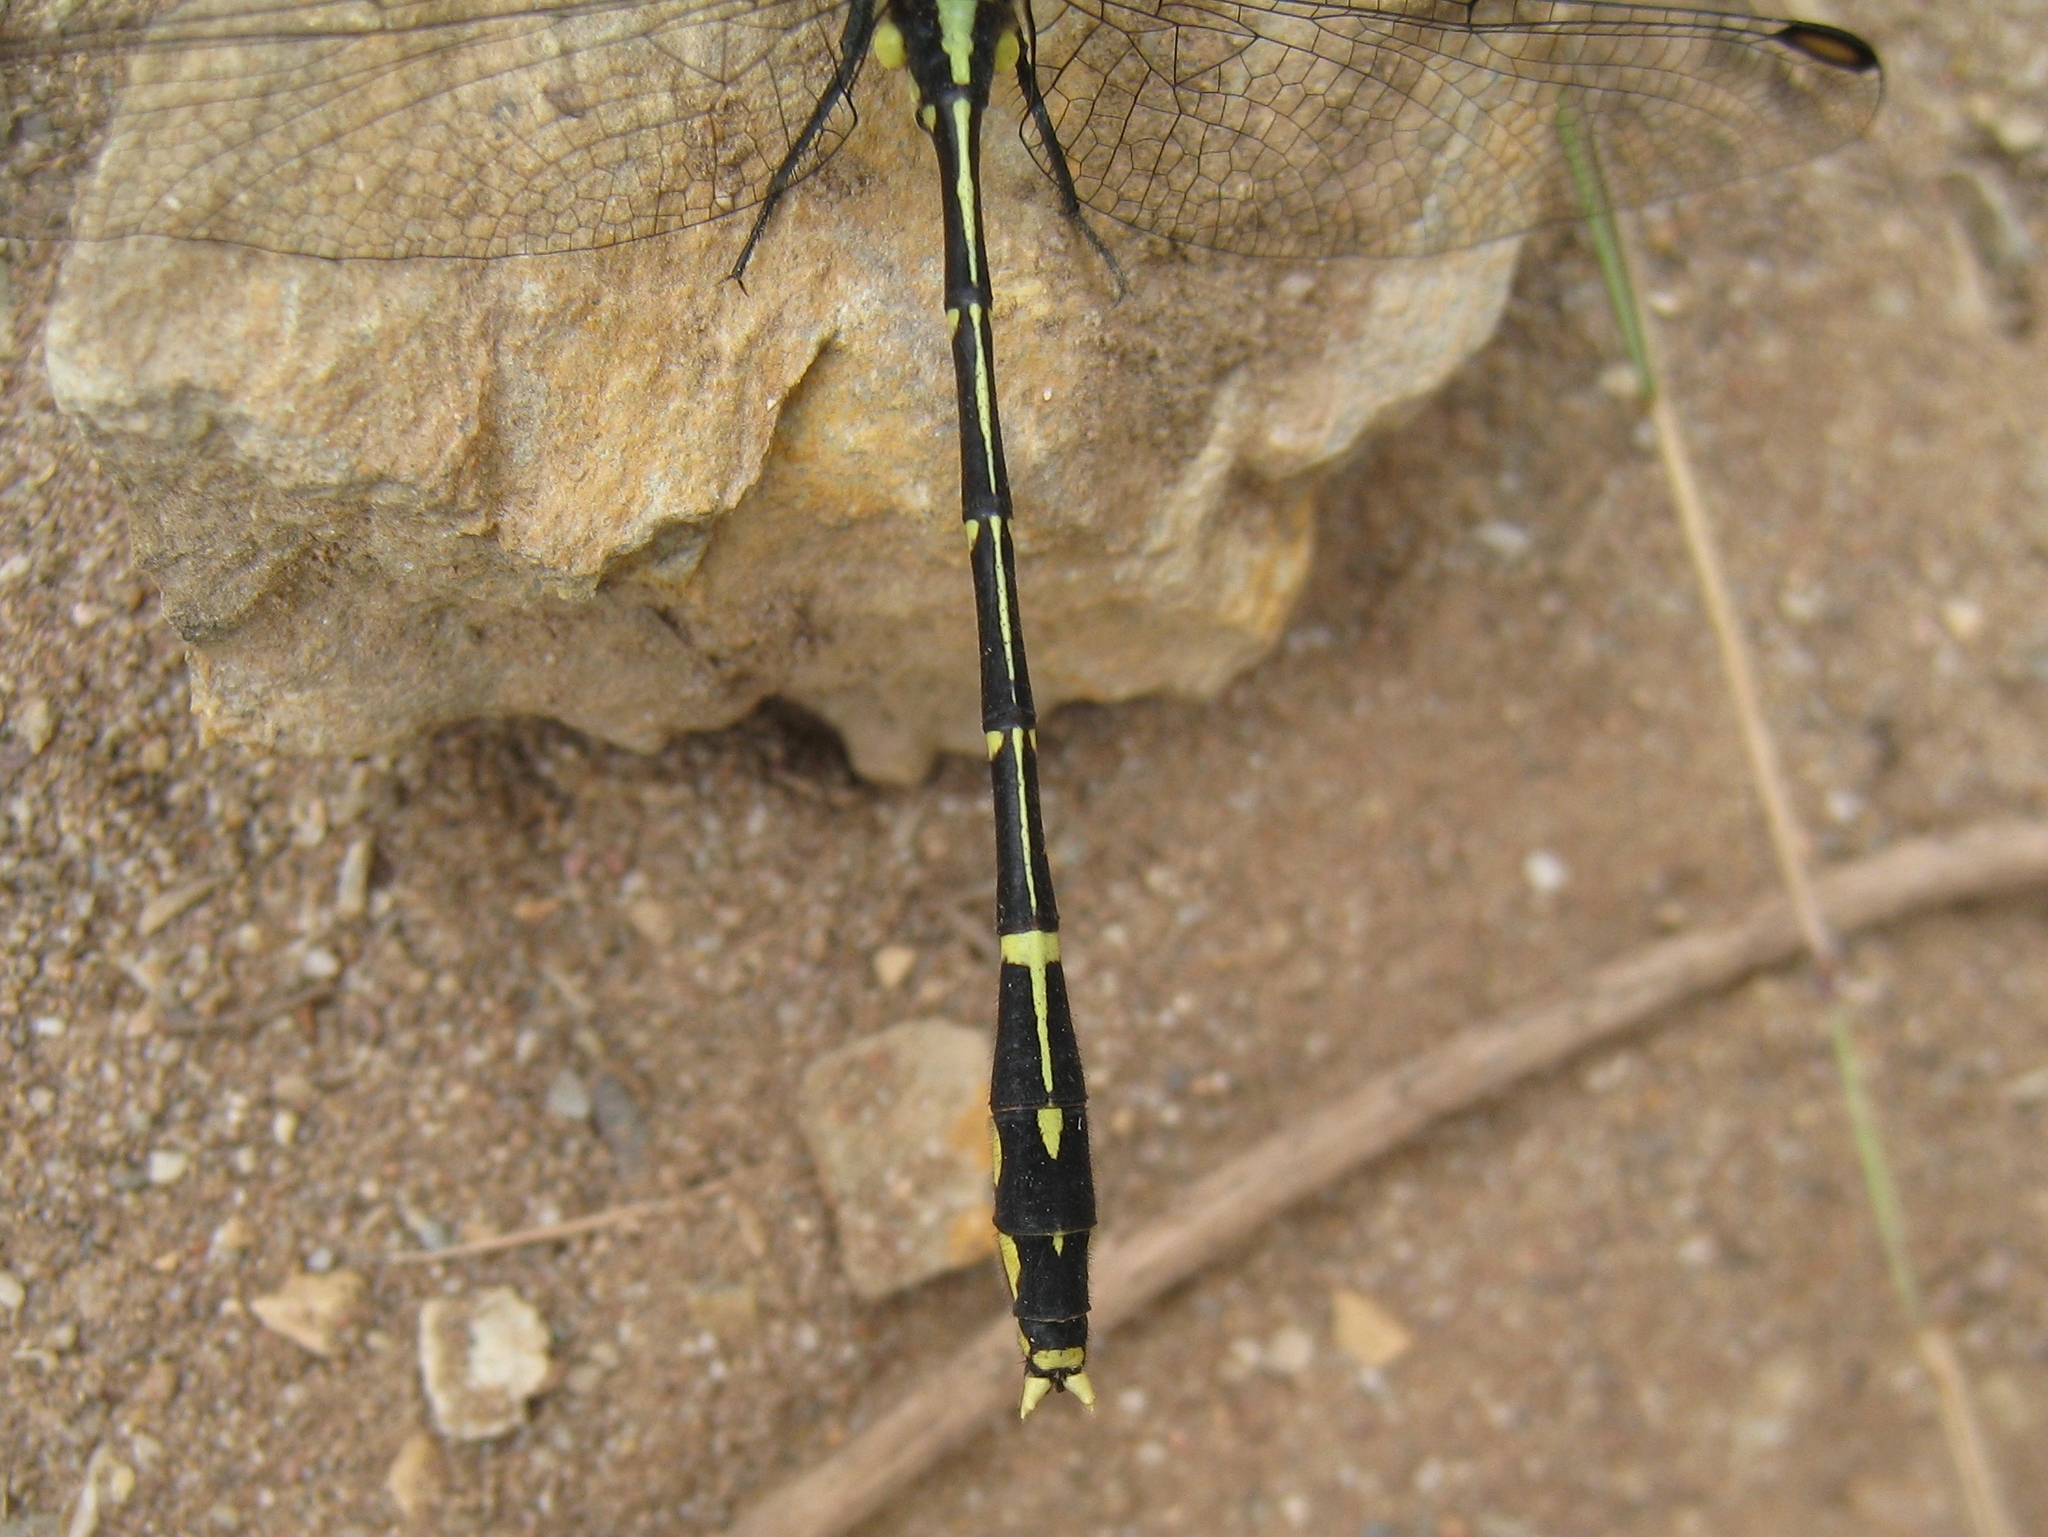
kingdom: Animalia
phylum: Arthropoda
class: Insecta
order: Odonata
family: Gomphidae
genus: Austrogomphus
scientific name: Austrogomphus ochraceus
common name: Jade hunter
